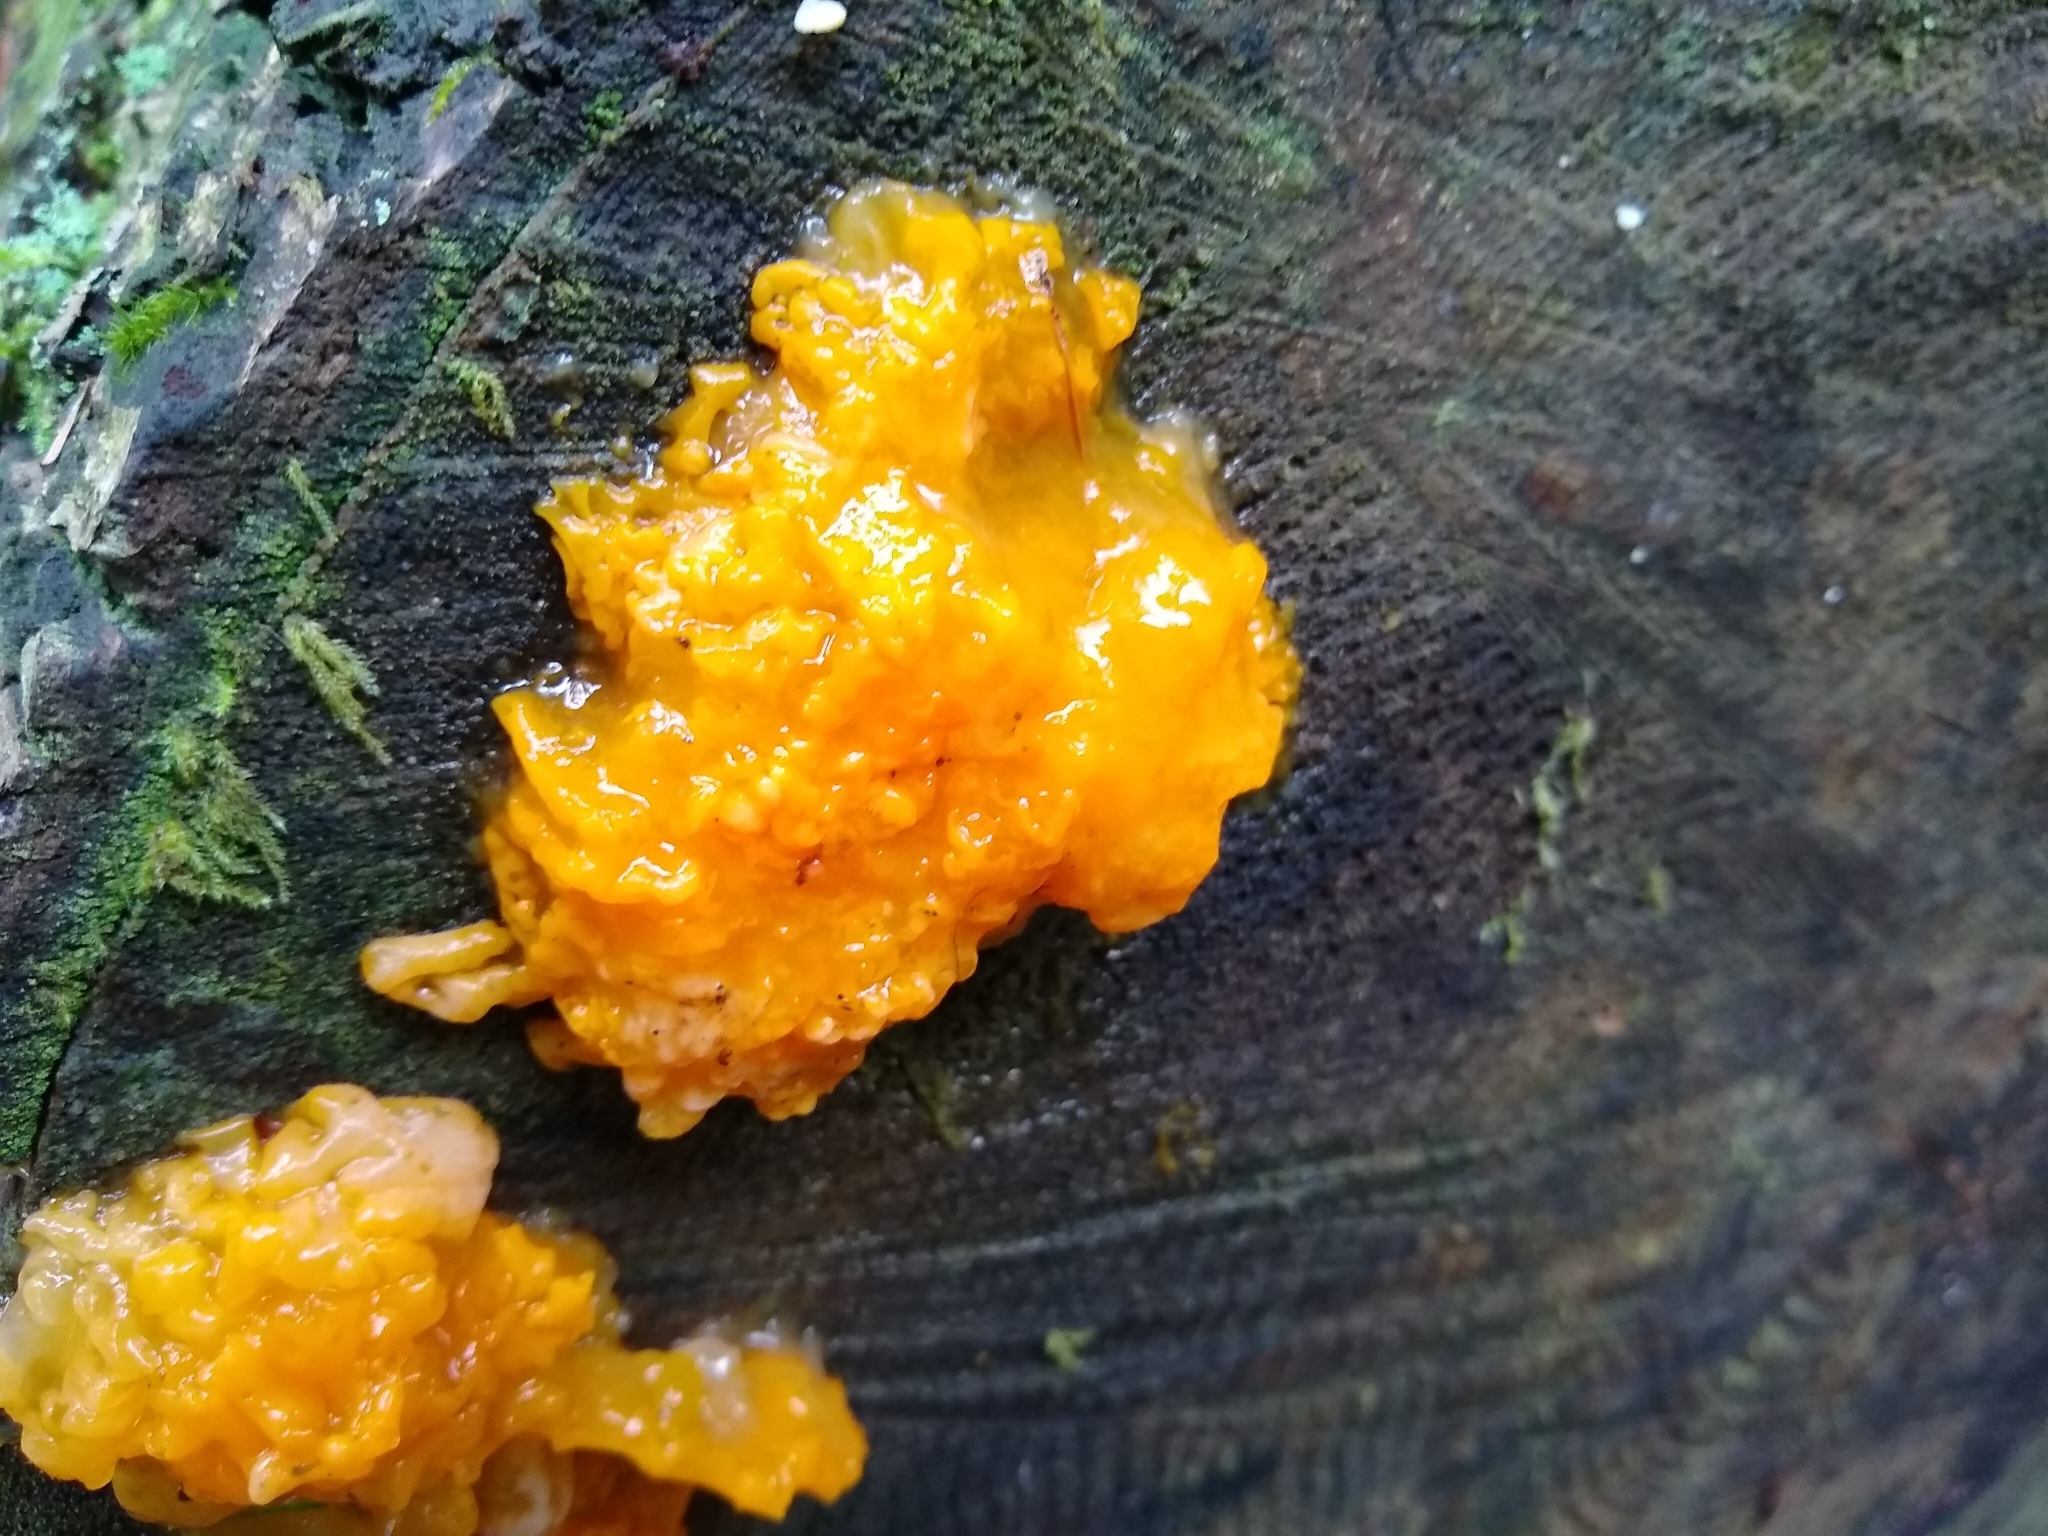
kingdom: Fungi
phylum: Basidiomycota
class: Dacrymycetes
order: Dacrymycetales
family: Dacrymycetaceae
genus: Dacrymyces
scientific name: Dacrymyces chrysospermus
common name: Orange jelly spot
